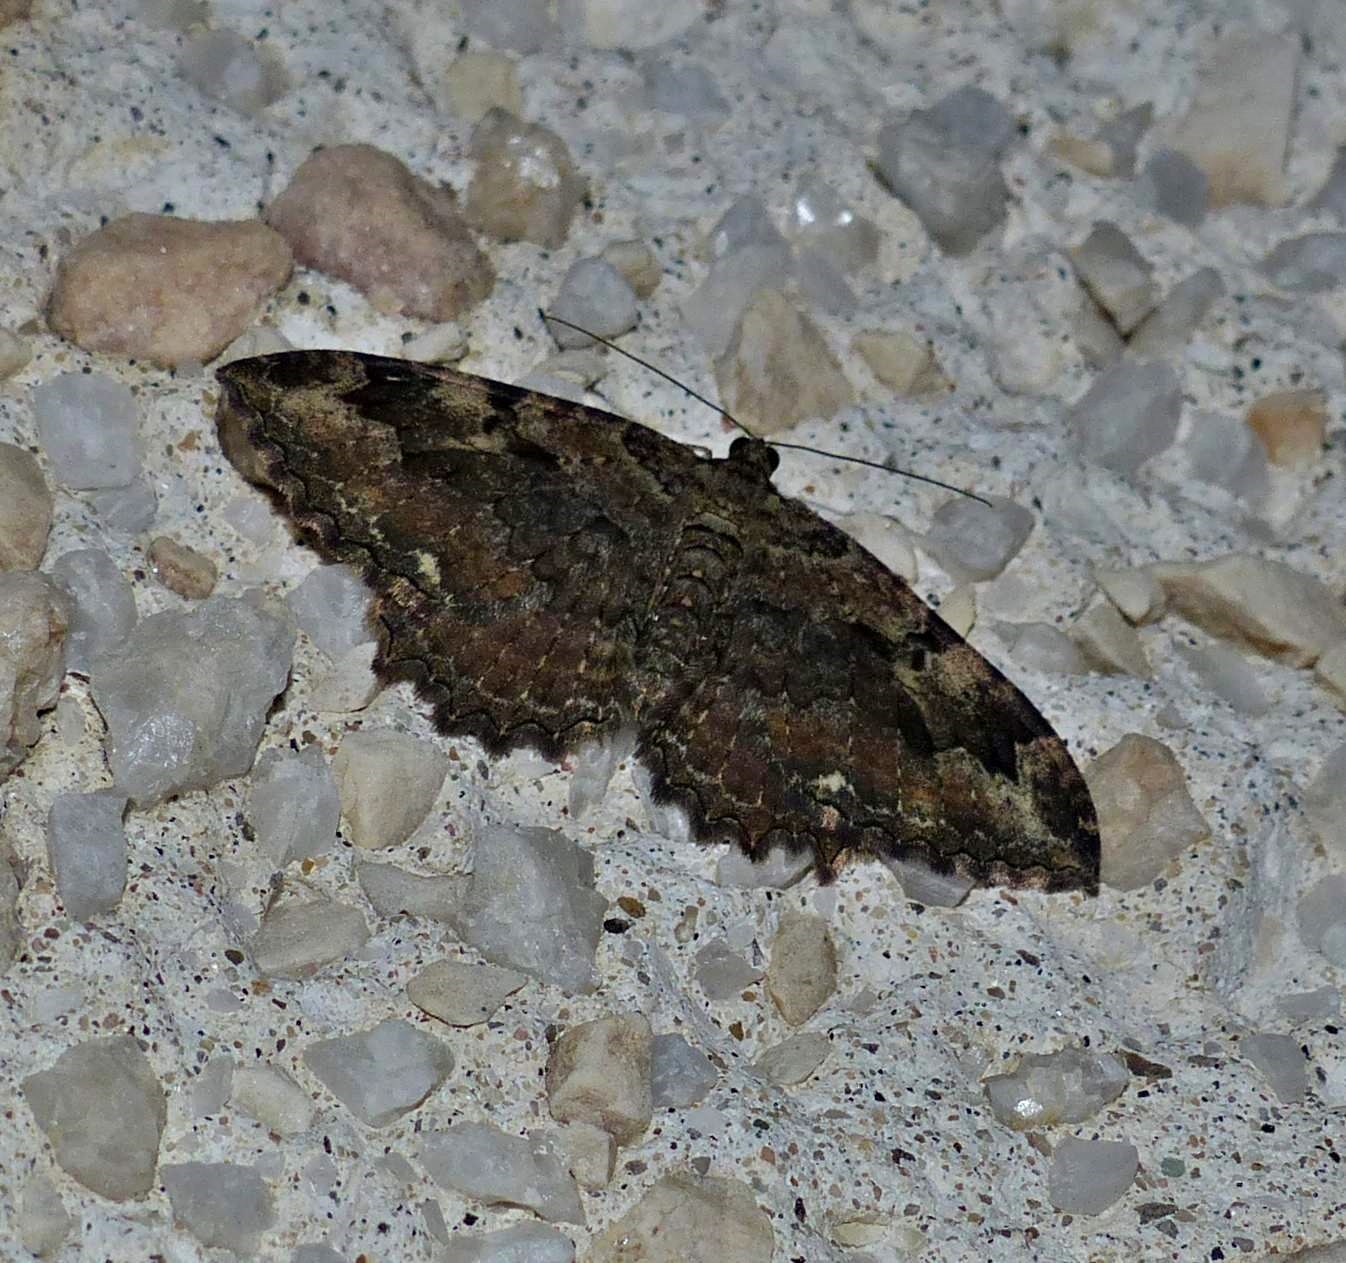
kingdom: Animalia
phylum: Arthropoda
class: Insecta
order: Lepidoptera
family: Geometridae
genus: Rheumaptera
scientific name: Rheumaptera
